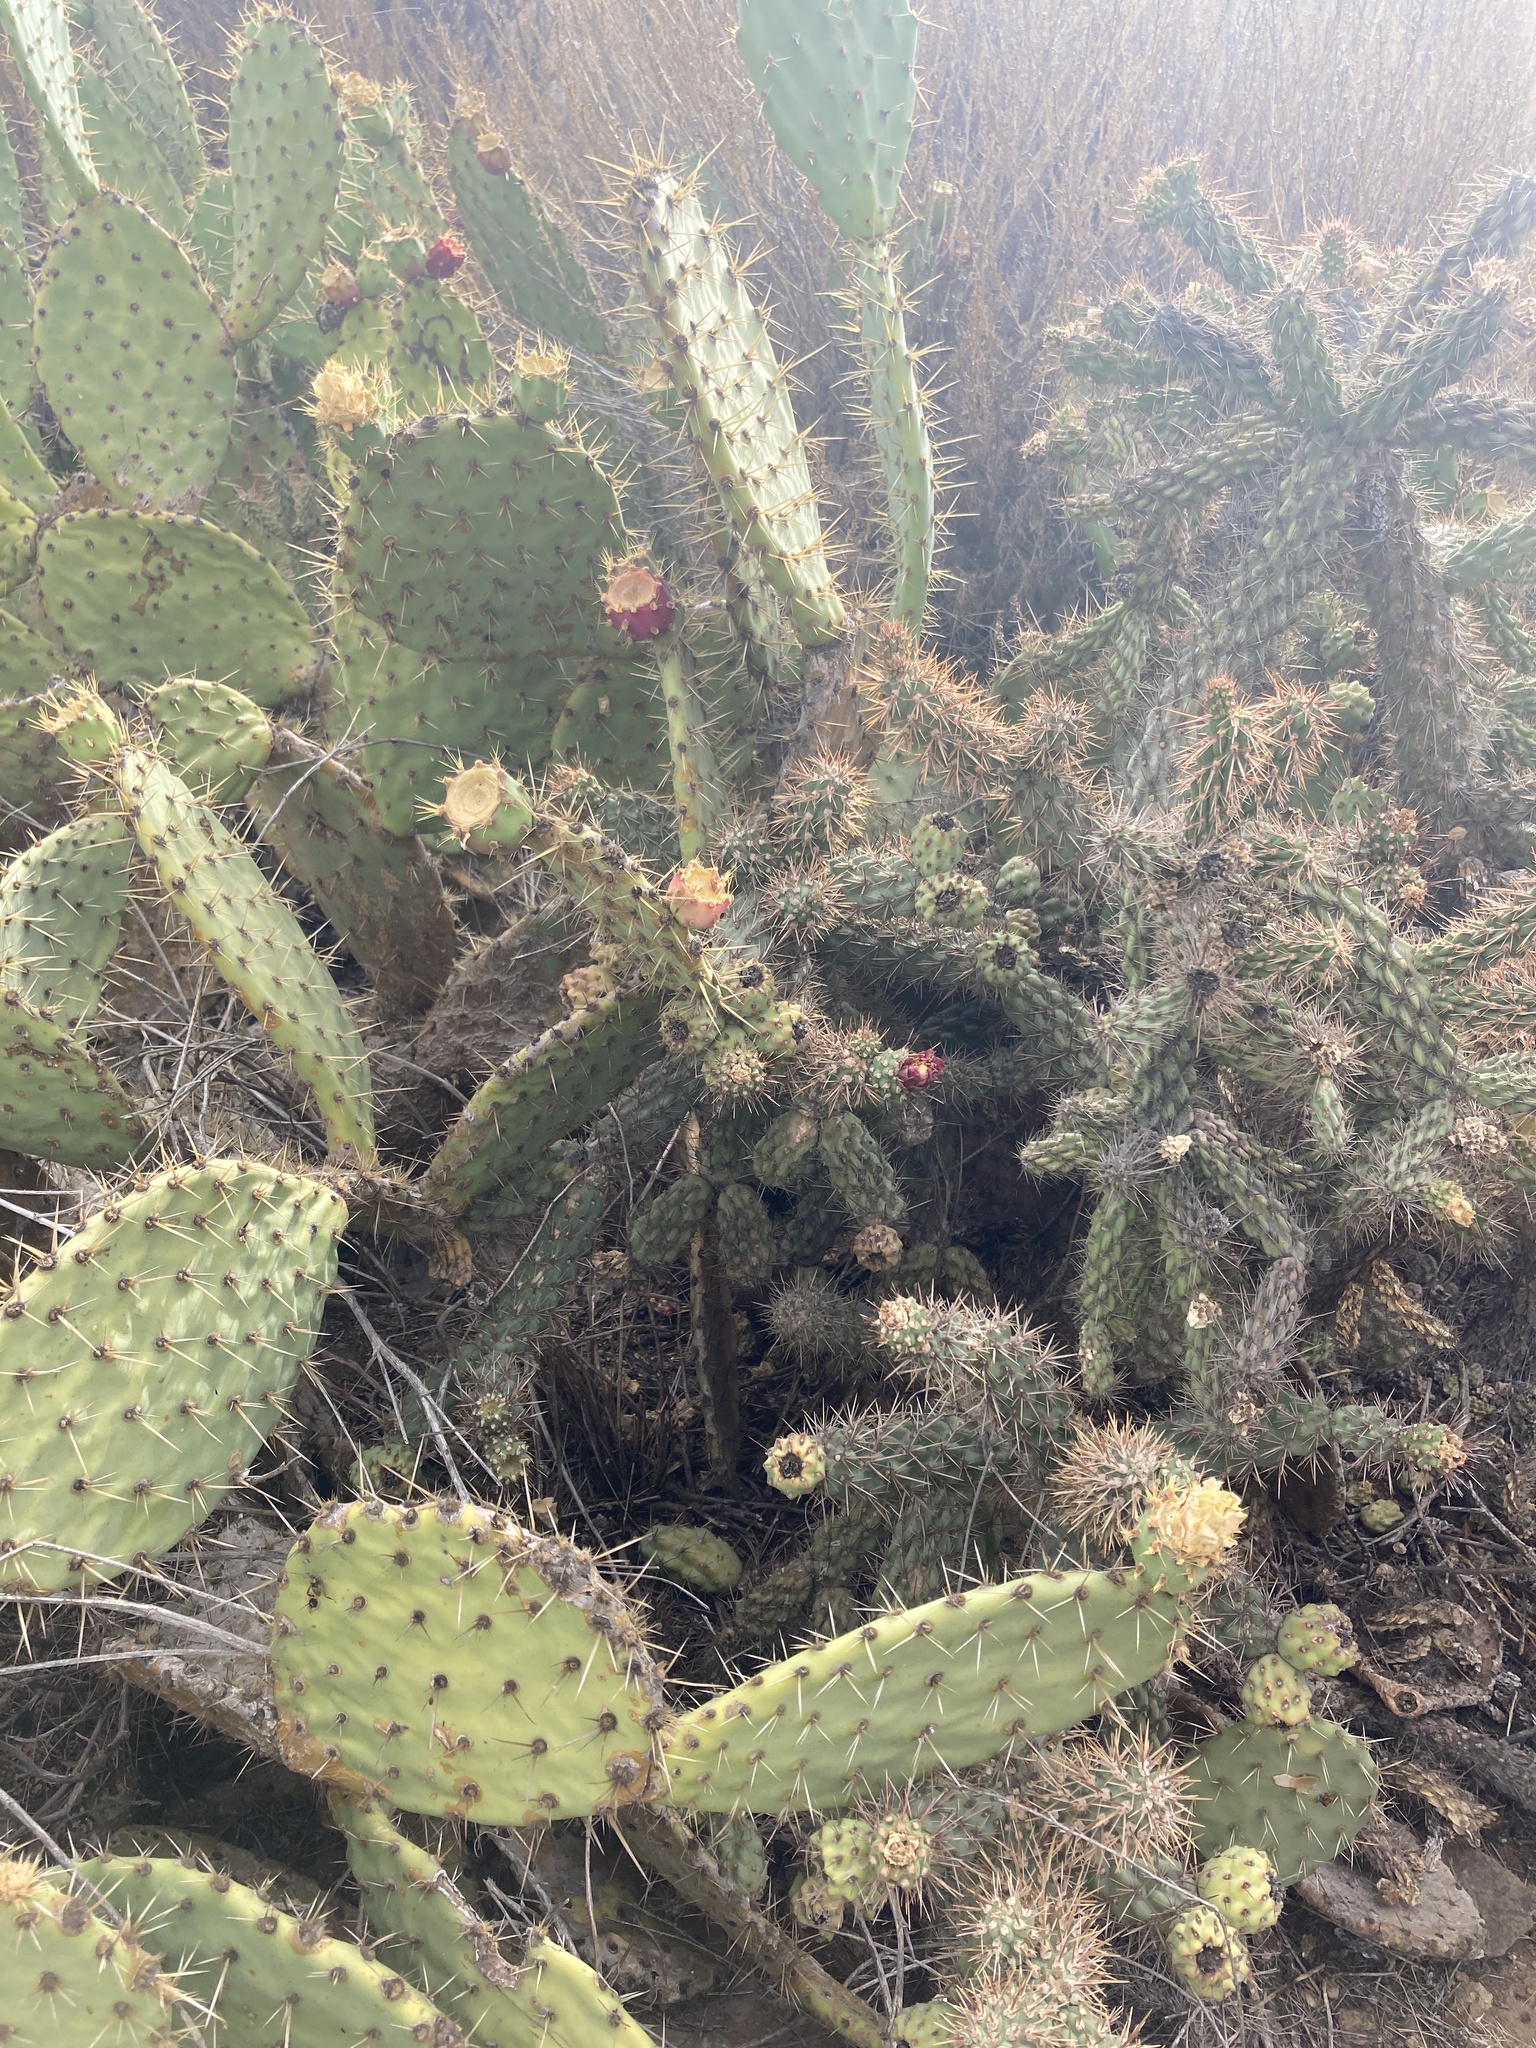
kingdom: Plantae
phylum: Tracheophyta
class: Magnoliopsida
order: Caryophyllales
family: Cactaceae
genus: Cylindropuntia
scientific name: Cylindropuntia prolifera
